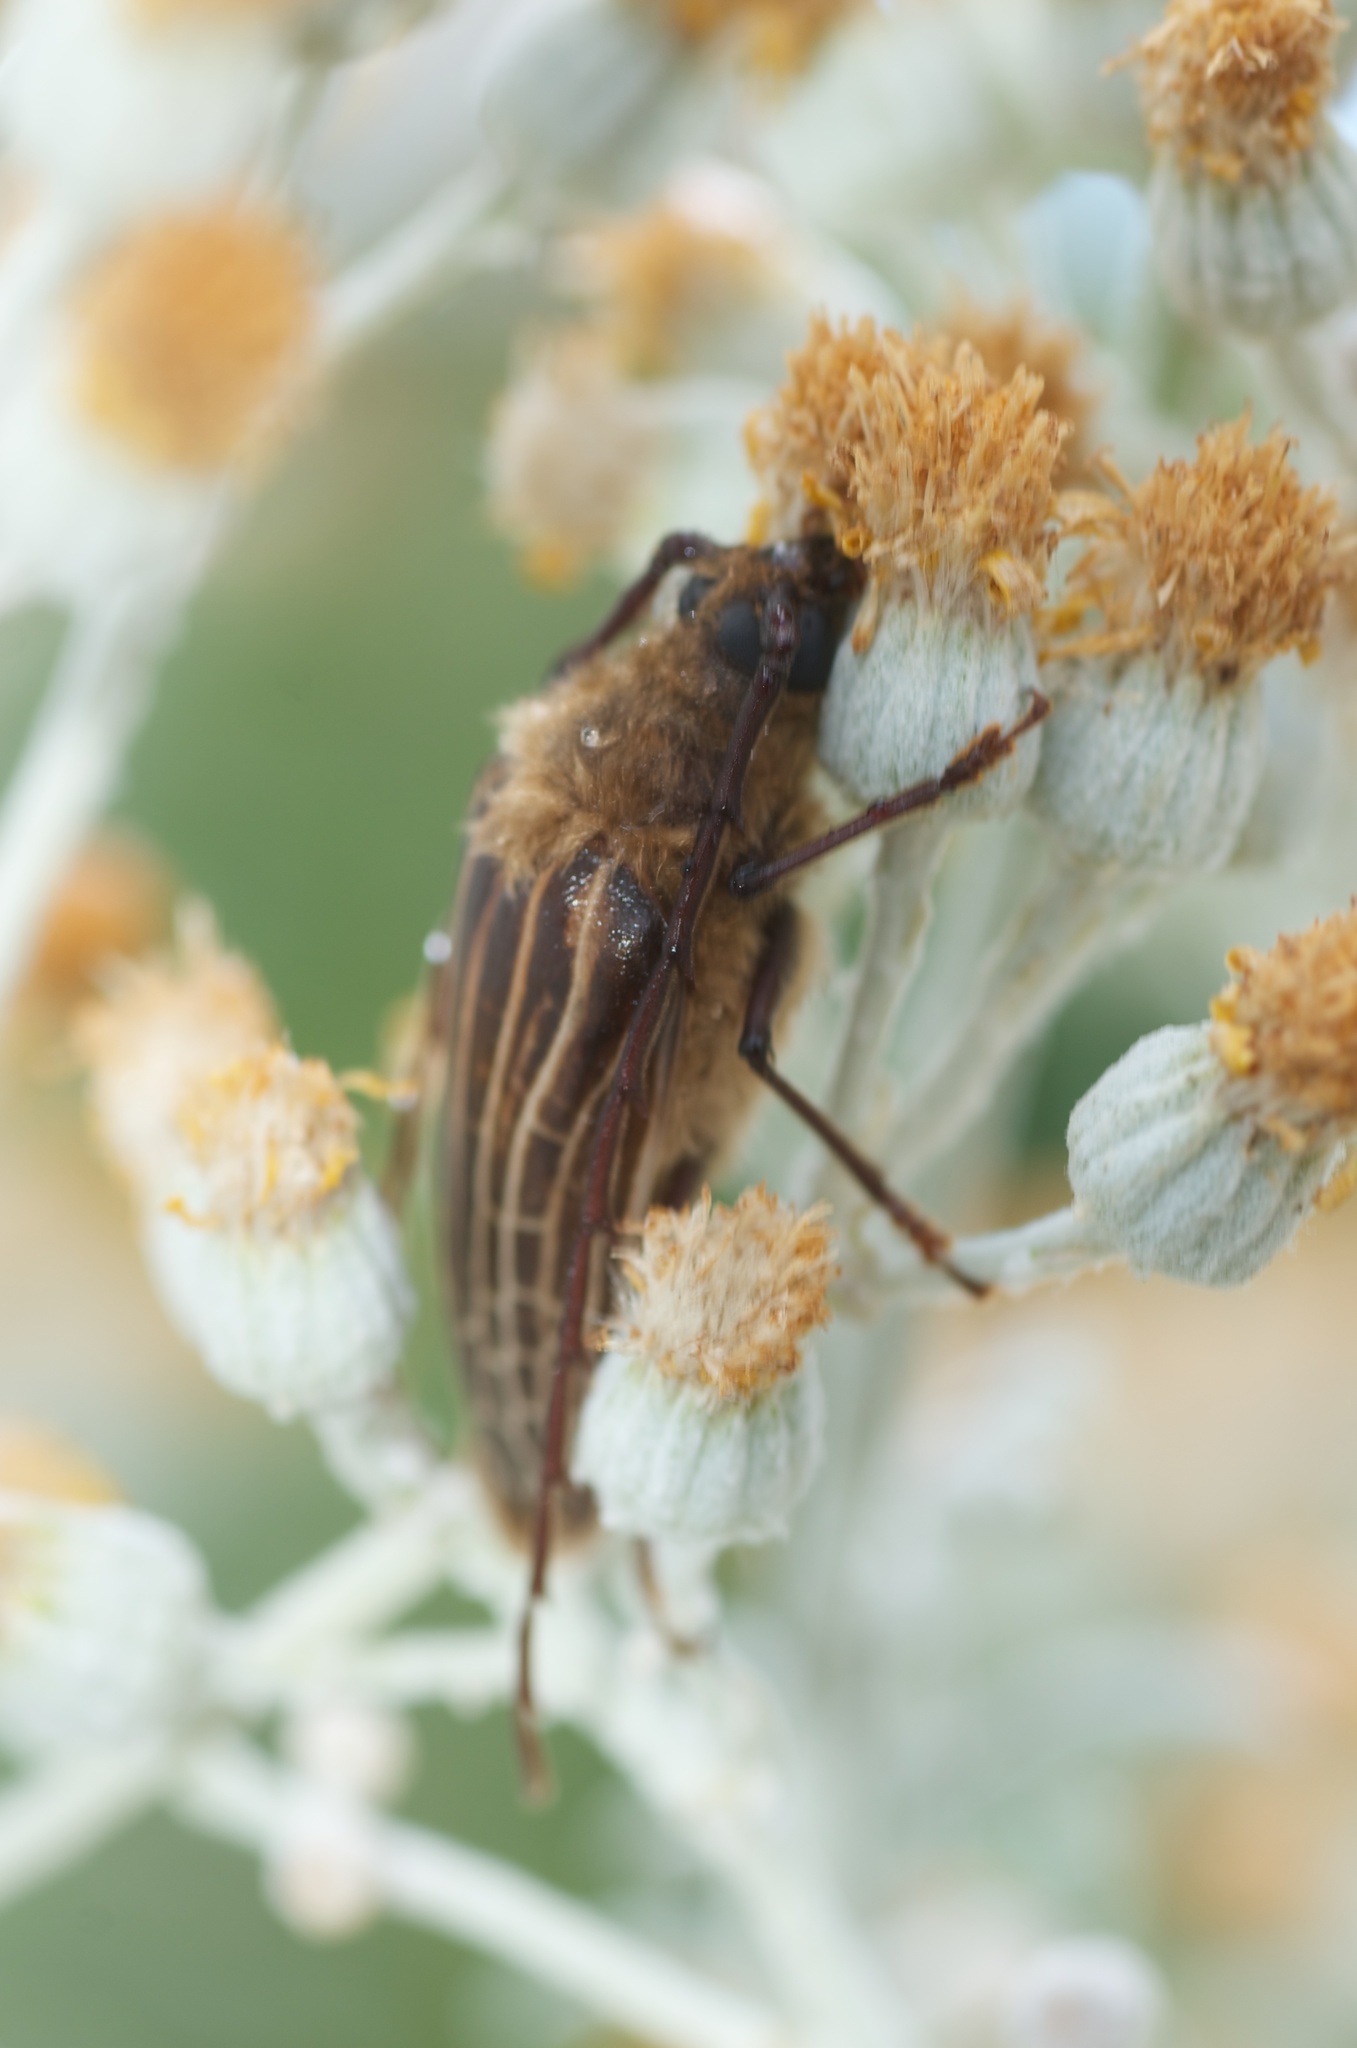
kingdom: Animalia
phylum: Arthropoda
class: Insecta
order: Coleoptera
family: Cerambycidae
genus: Prionoplus
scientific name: Prionoplus reticularis
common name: Huhu beetle
